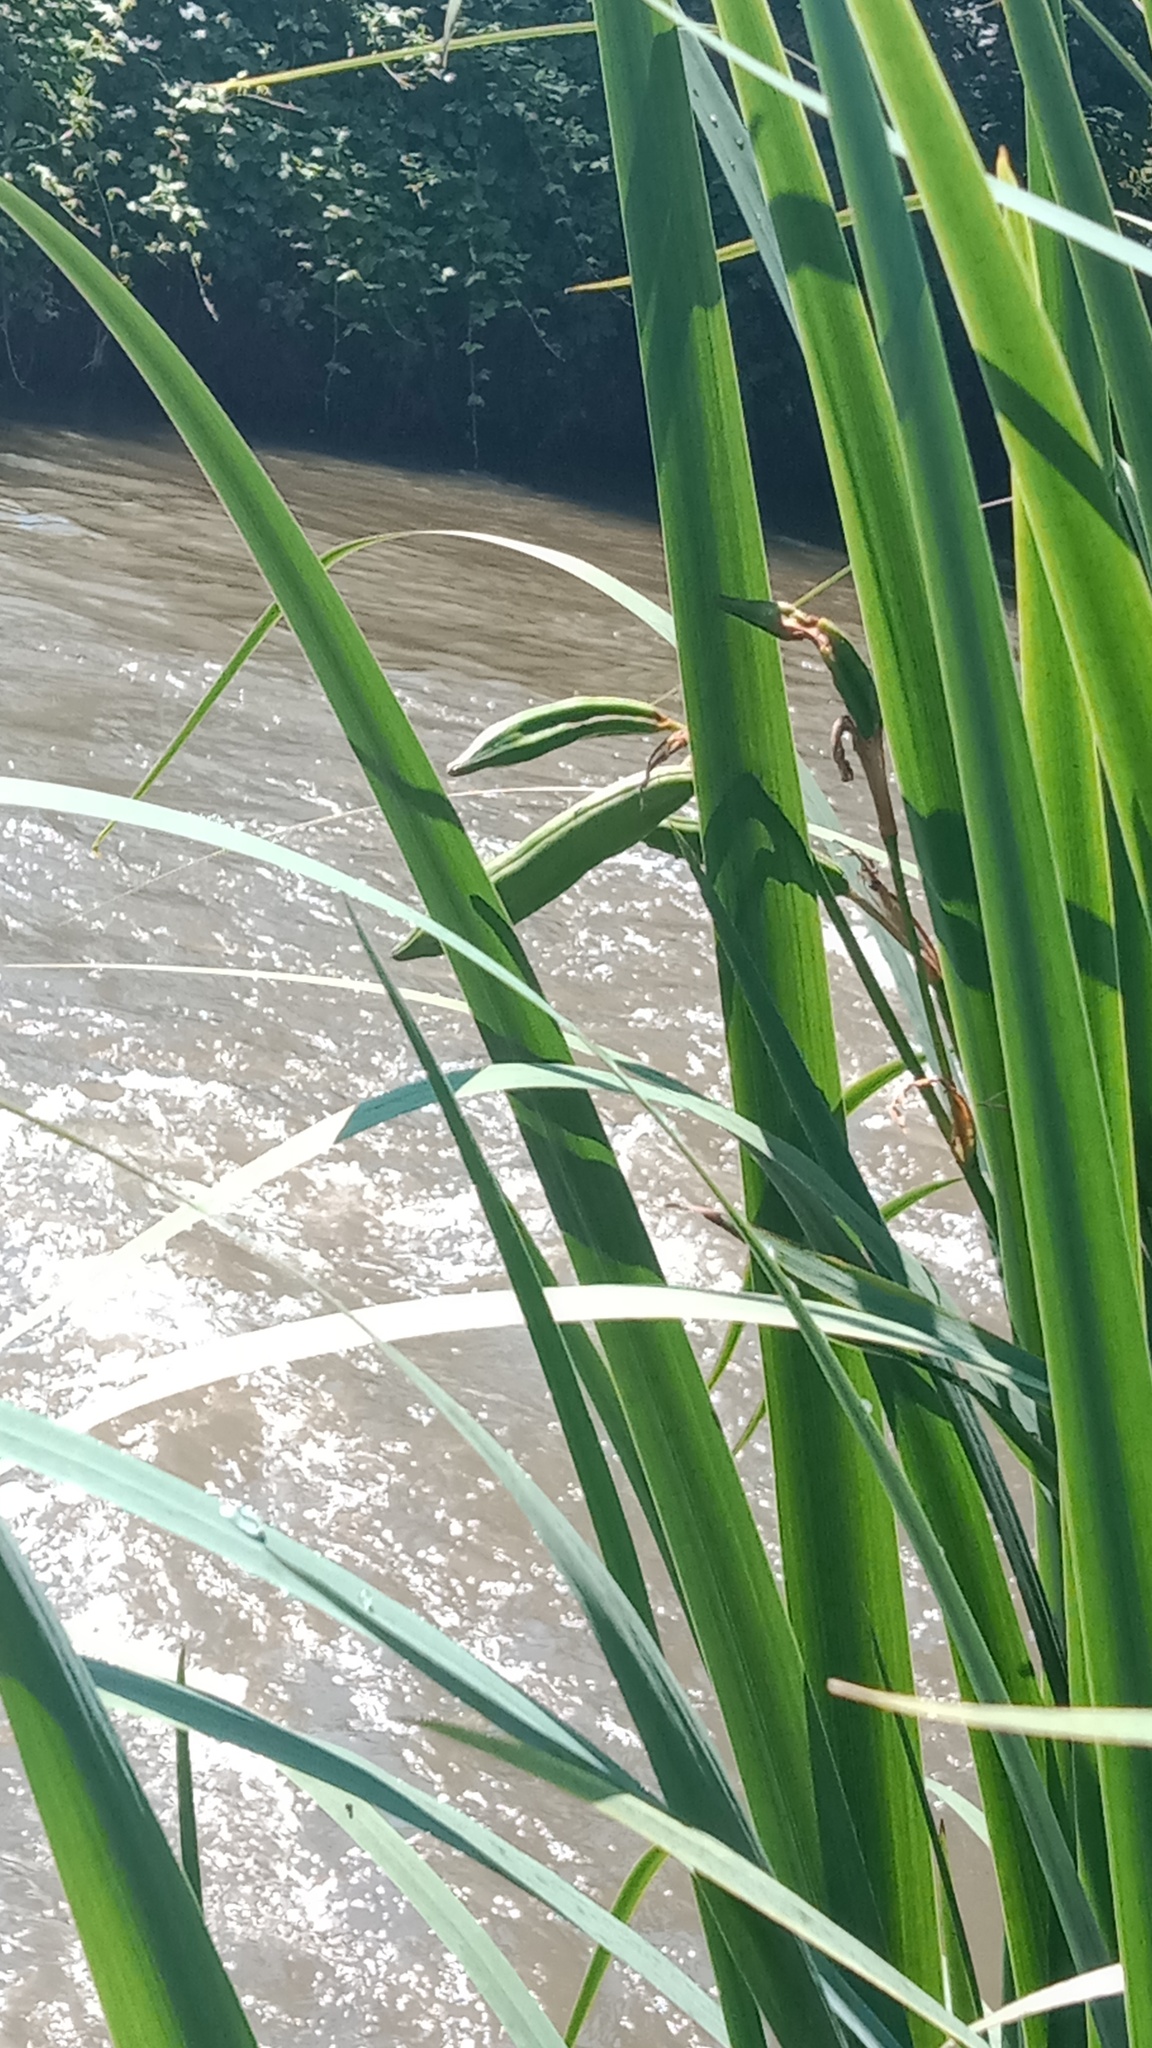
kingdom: Plantae
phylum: Tracheophyta
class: Liliopsida
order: Asparagales
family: Iridaceae
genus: Iris
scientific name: Iris pseudacorus
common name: Yellow flag
